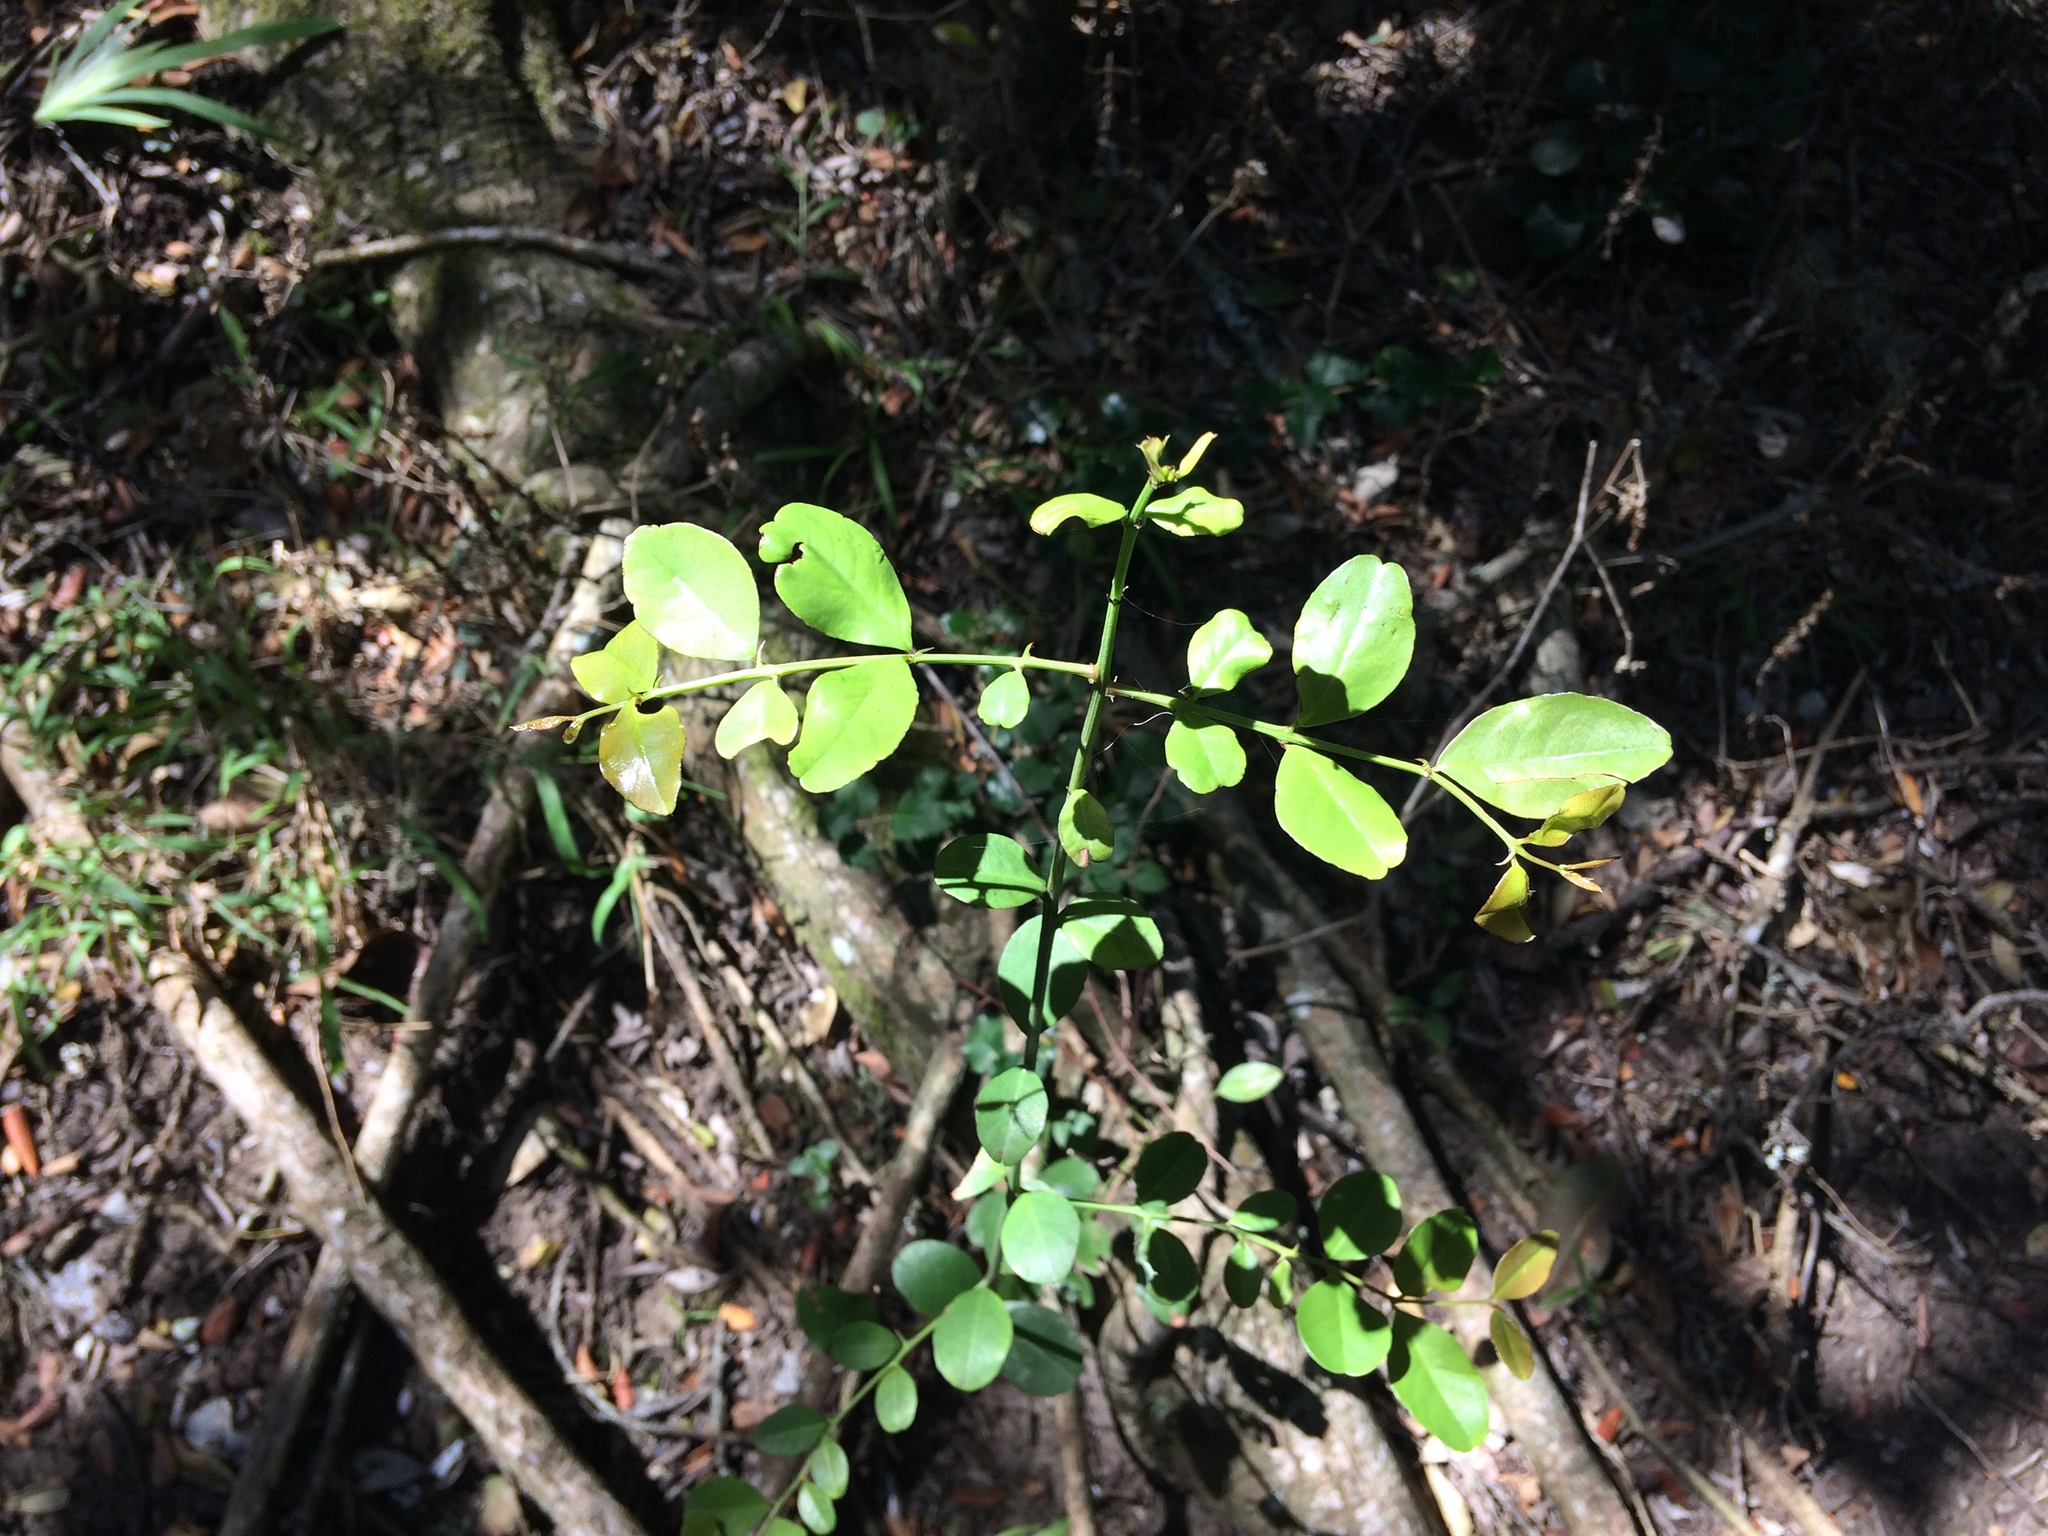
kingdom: Plantae
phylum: Tracheophyta
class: Magnoliopsida
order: Rosales
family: Rhamnaceae
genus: Scutia
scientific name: Scutia myrtina
